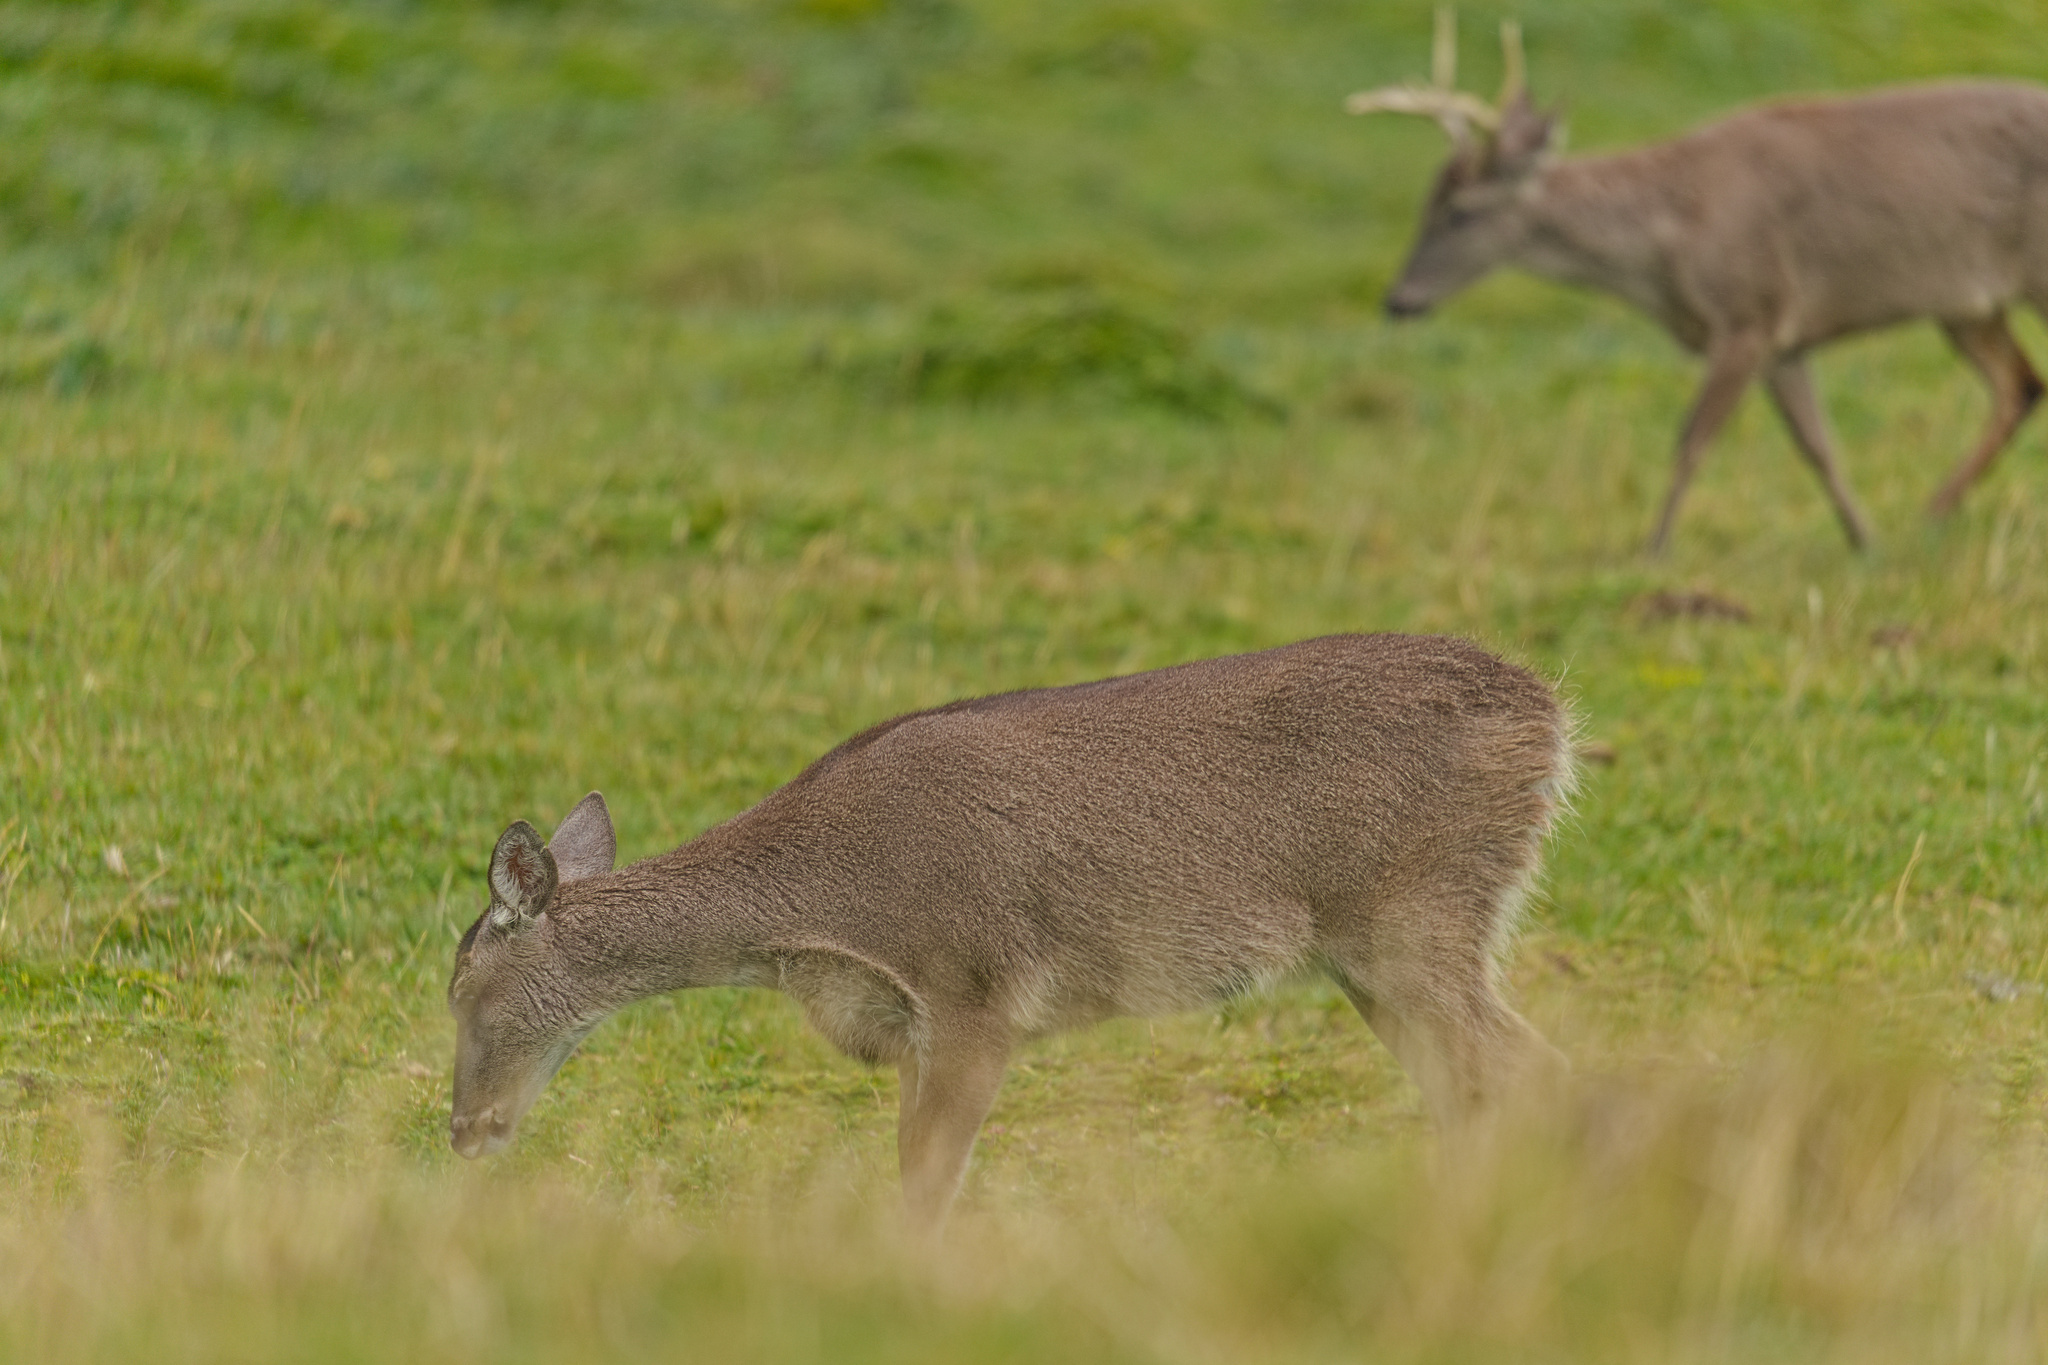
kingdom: Animalia
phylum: Chordata
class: Mammalia
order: Artiodactyla
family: Cervidae
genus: Odocoileus
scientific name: Odocoileus virginianus
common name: White-tailed deer
